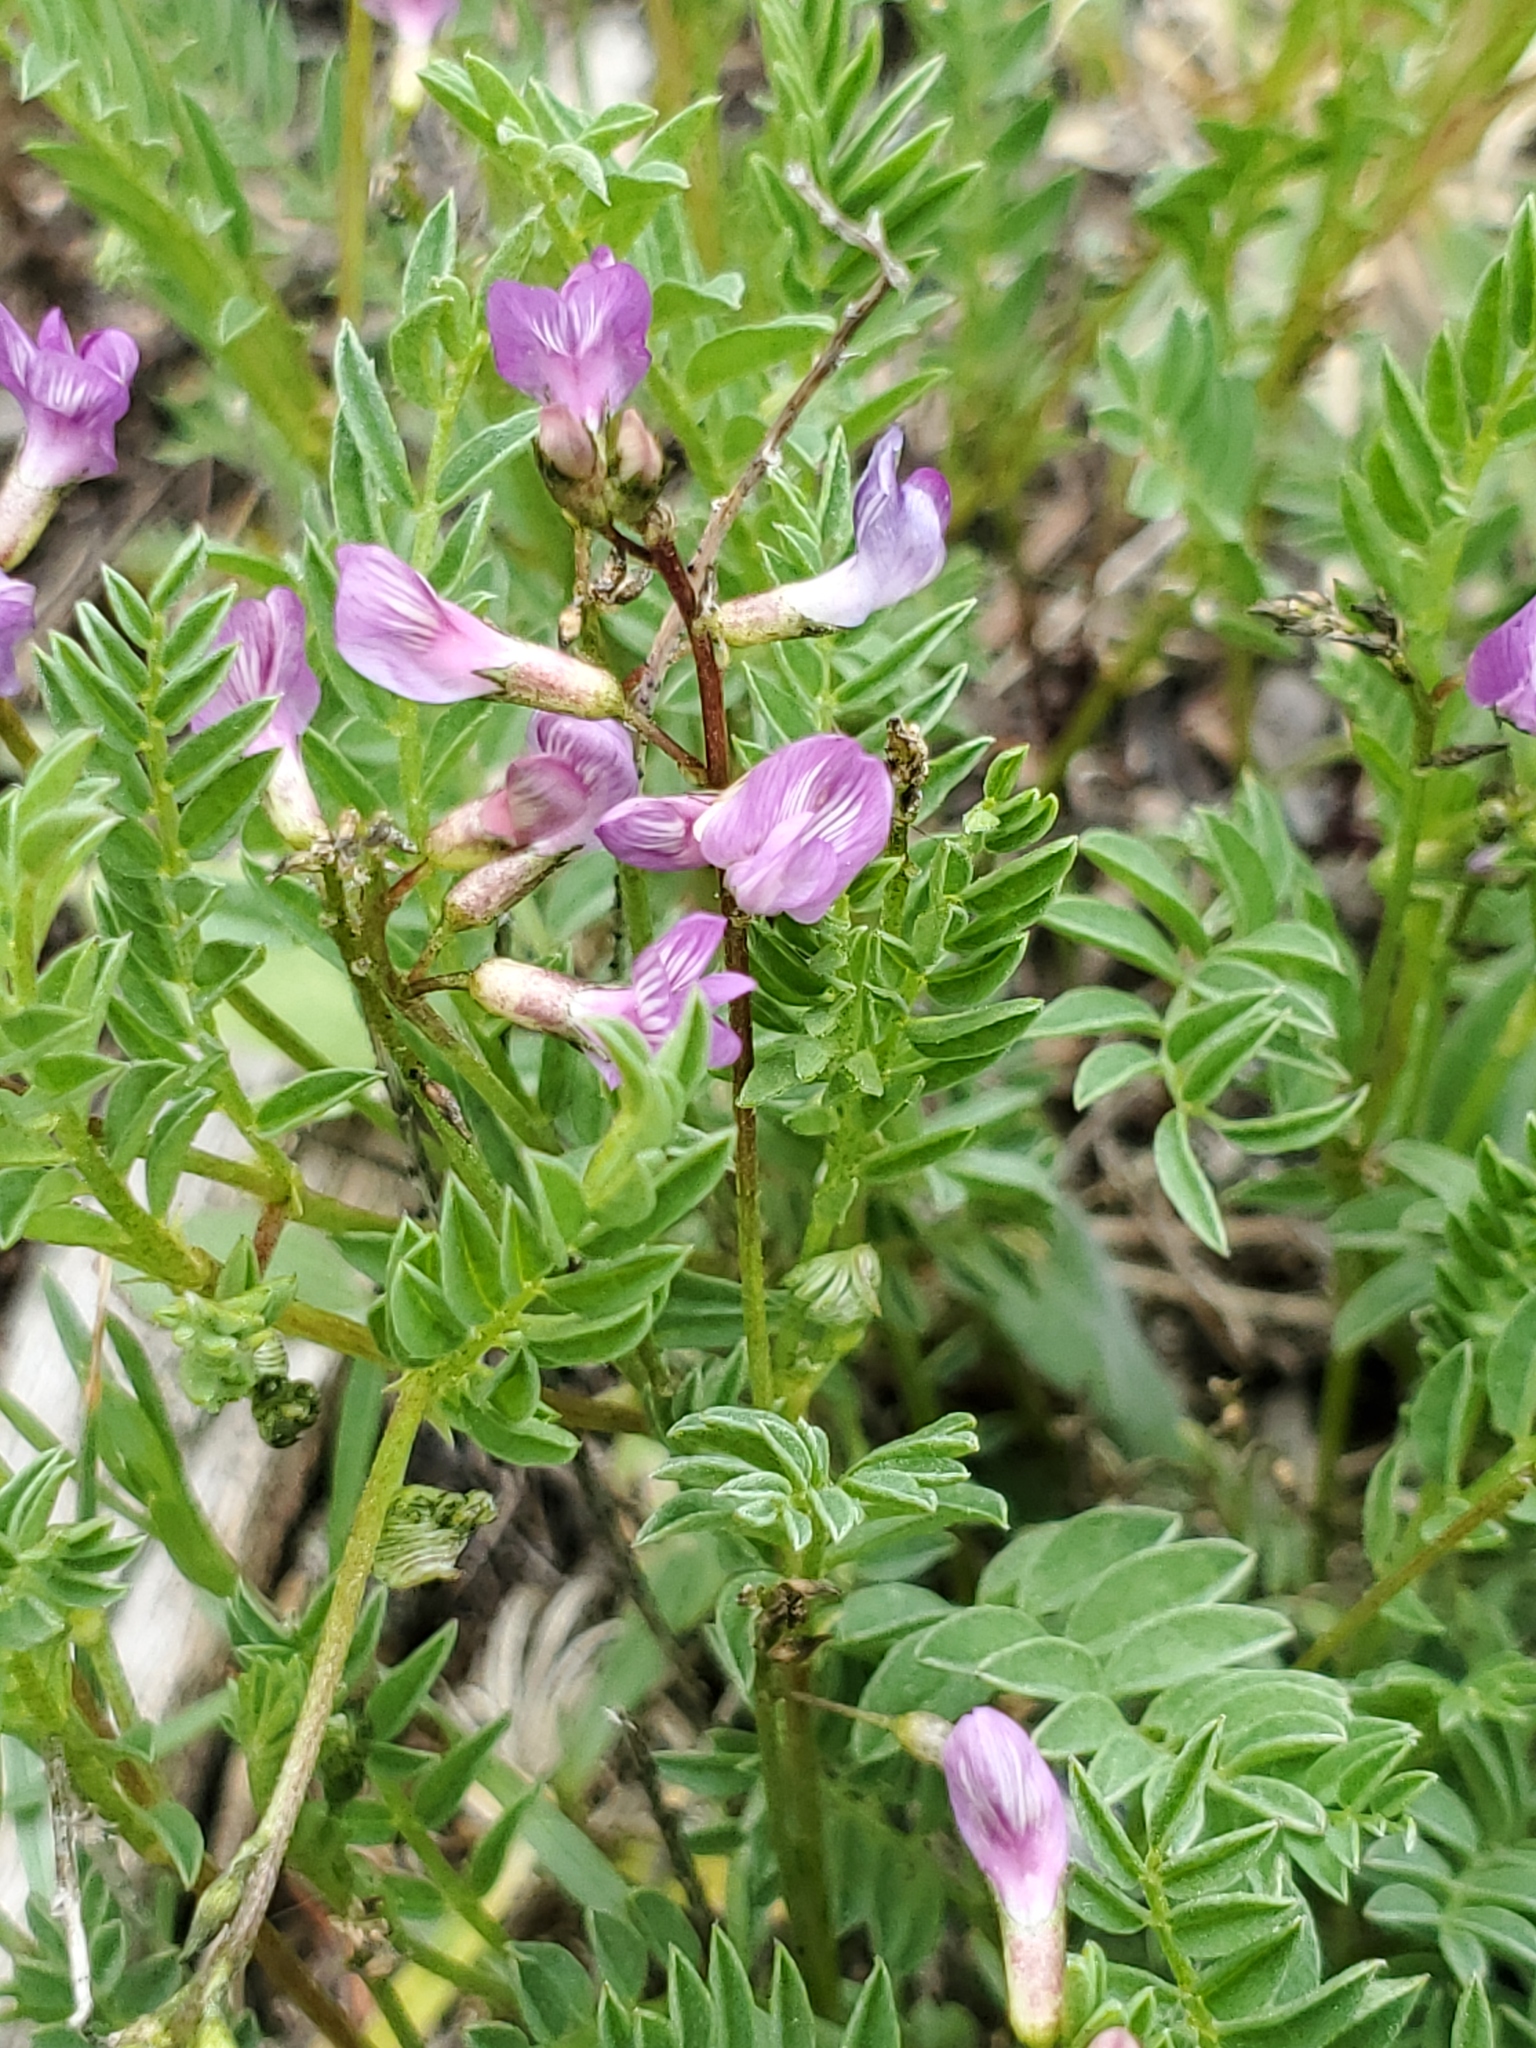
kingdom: Plantae
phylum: Tracheophyta
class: Magnoliopsida
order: Fabales
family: Fabaceae
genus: Astragalus
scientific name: Astragalus bourgovii
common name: Bourgeau's milk-vetch
